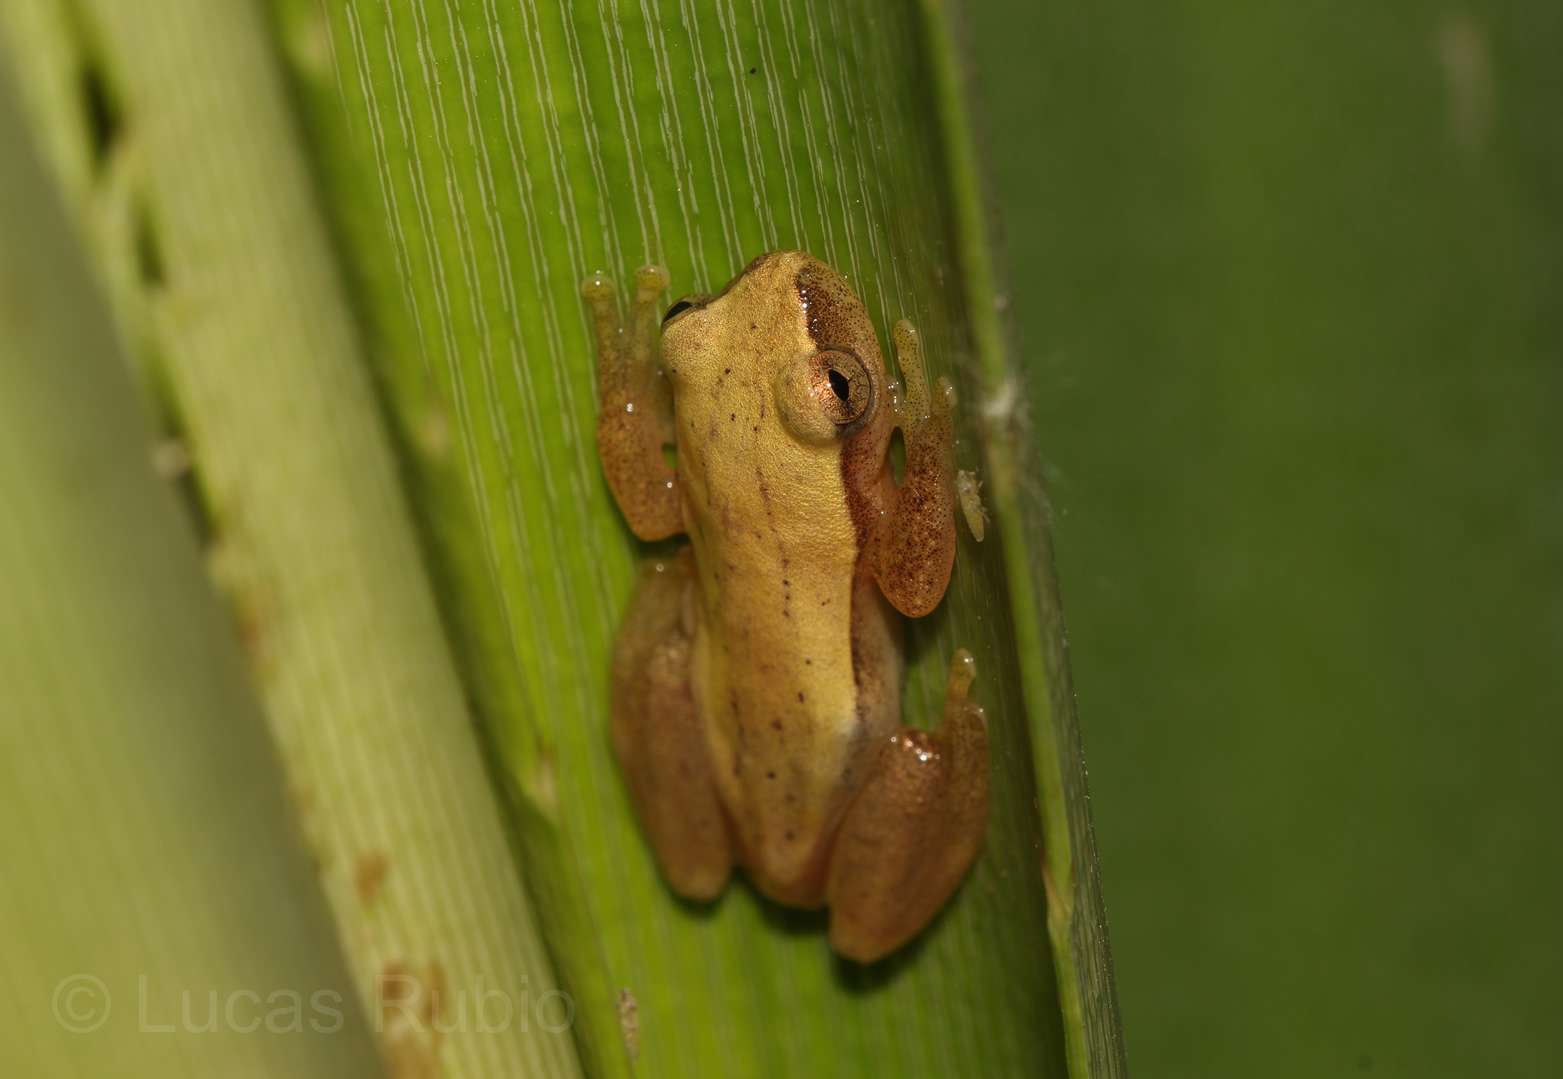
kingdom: Animalia
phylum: Chordata
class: Amphibia
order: Anura
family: Hylidae
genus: Dendropsophus
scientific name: Dendropsophus
